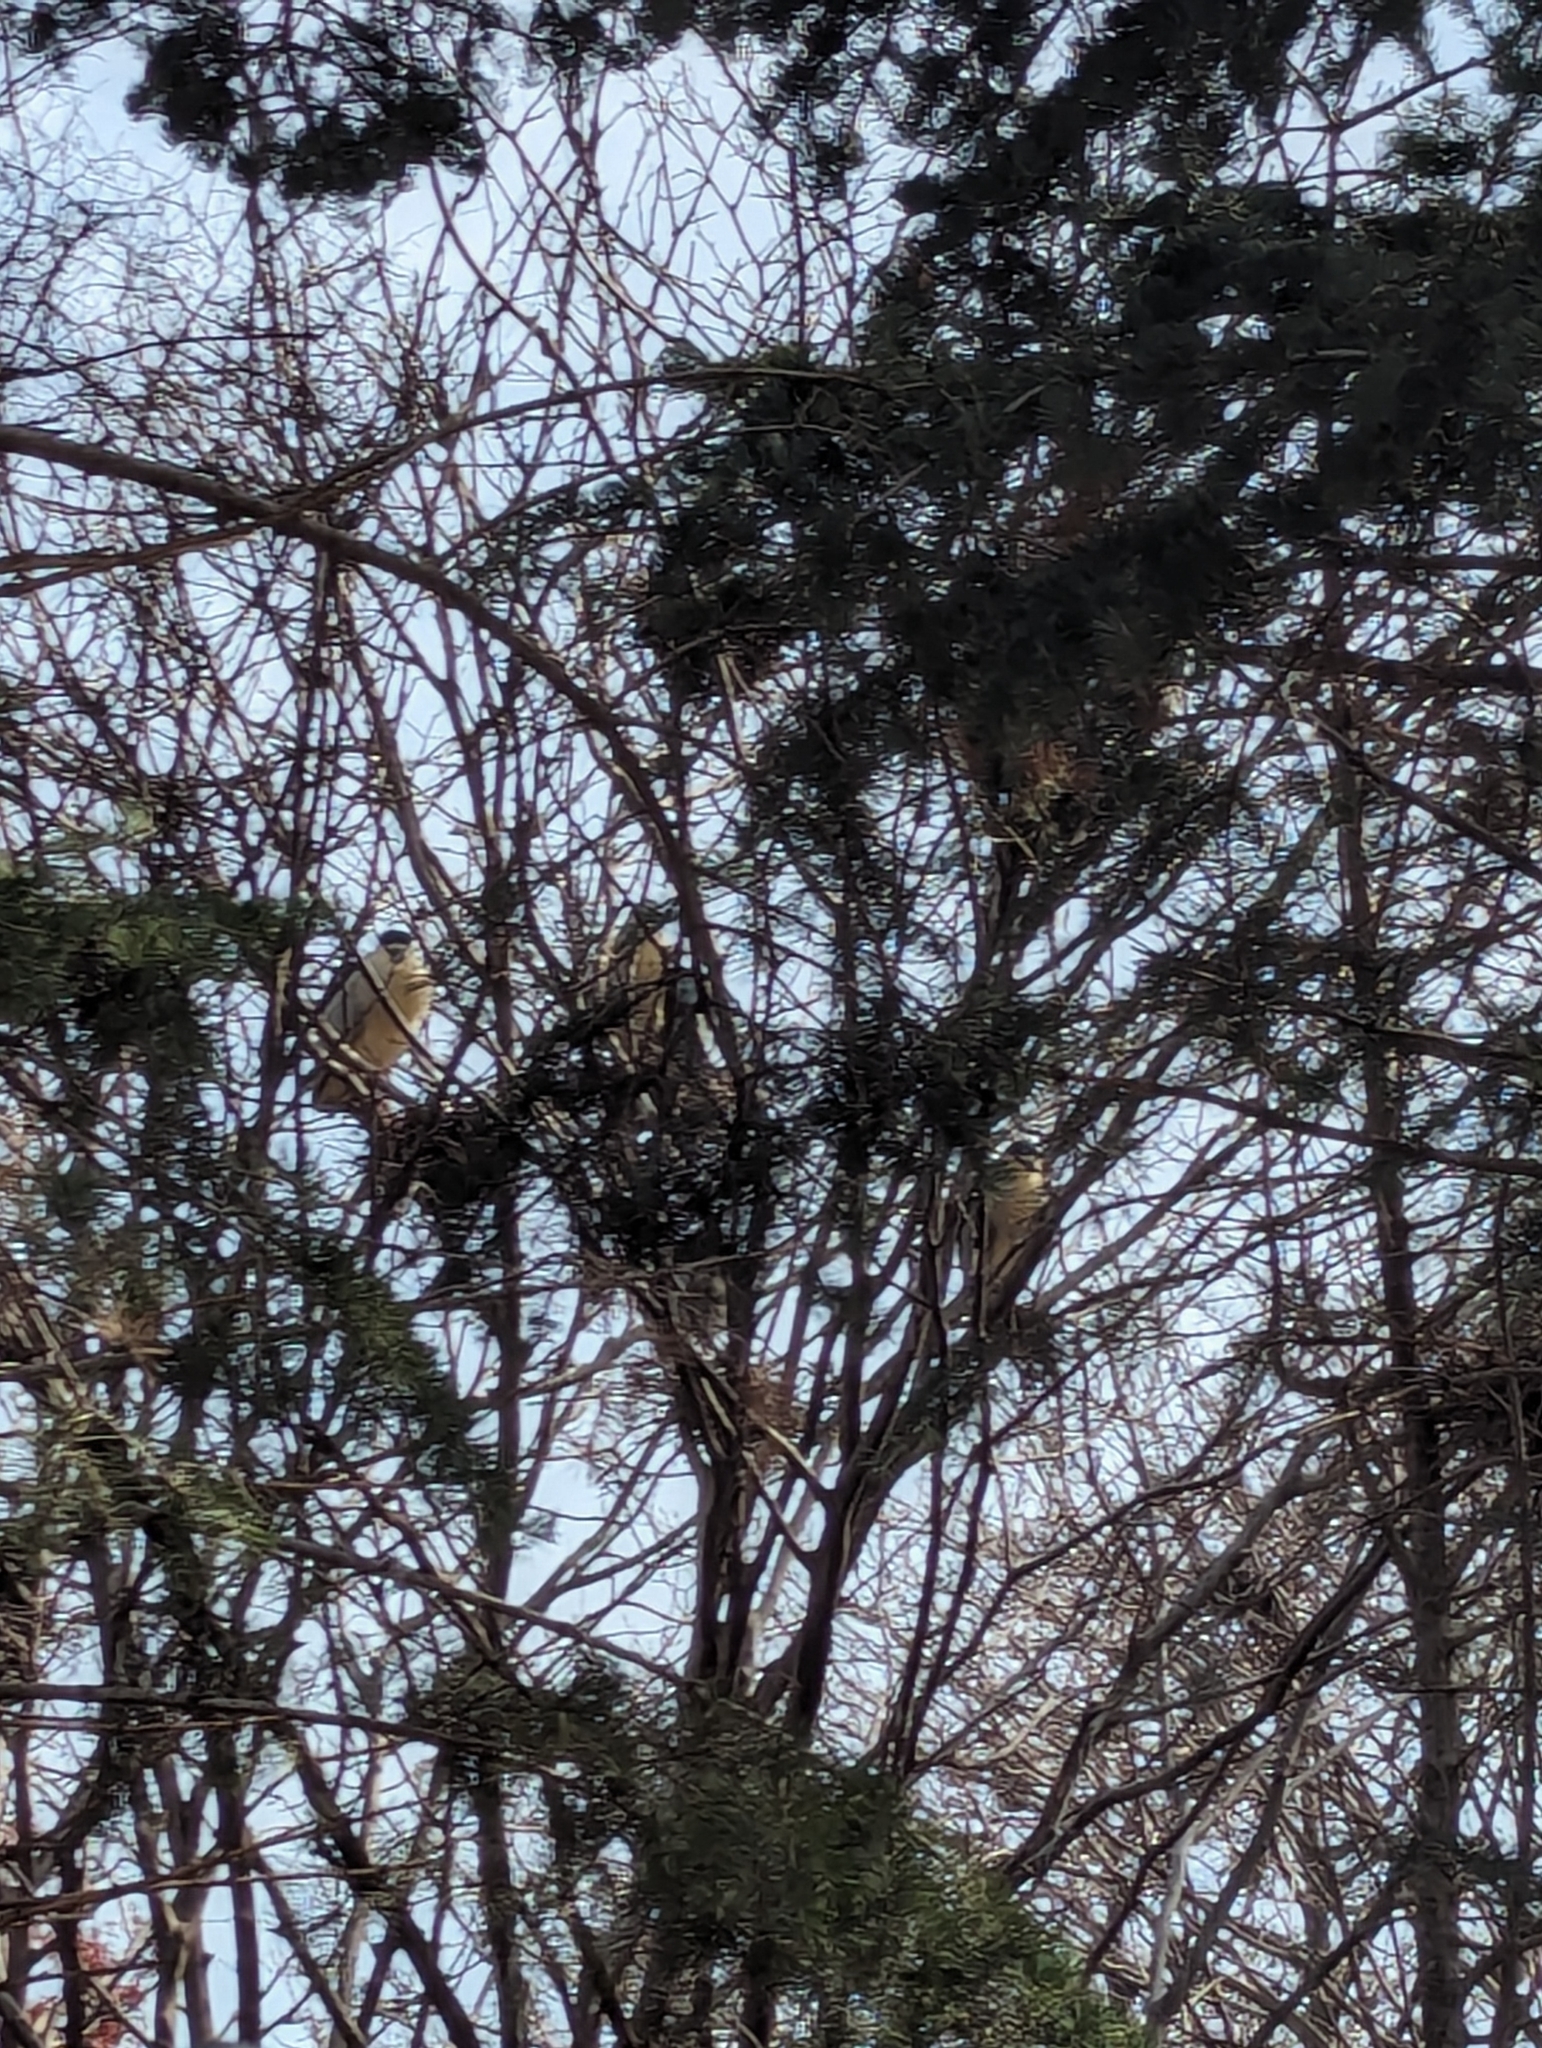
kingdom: Animalia
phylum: Chordata
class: Aves
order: Pelecaniformes
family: Ardeidae
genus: Nycticorax
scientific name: Nycticorax nycticorax
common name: Black-crowned night heron
